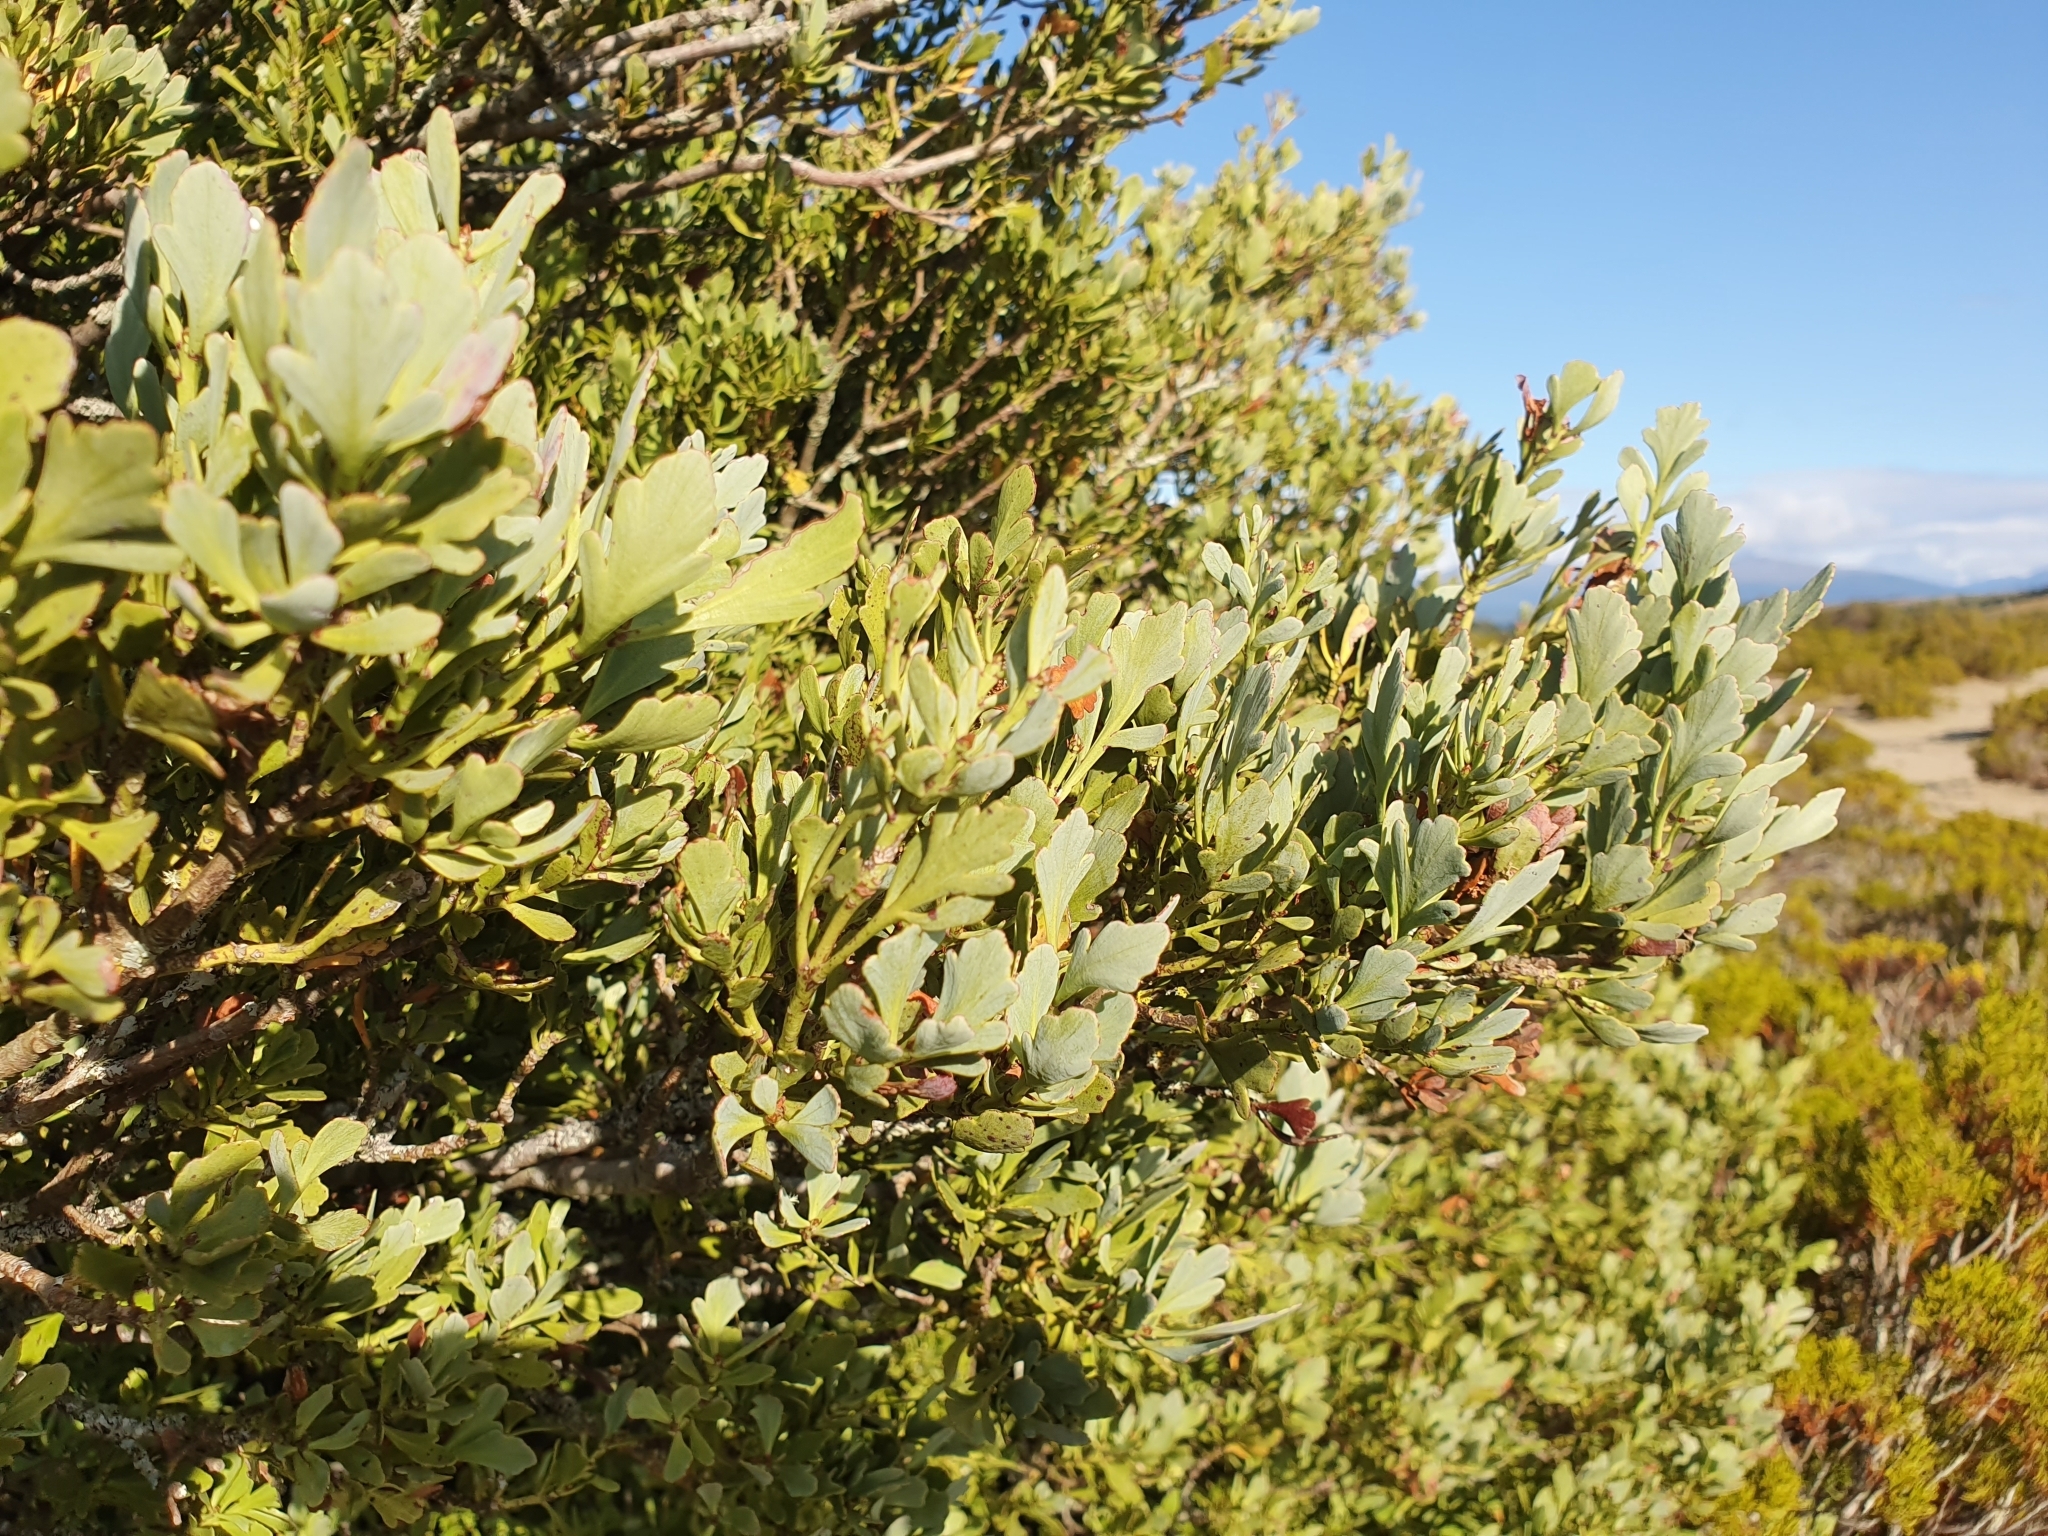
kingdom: Plantae
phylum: Tracheophyta
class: Pinopsida
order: Pinales
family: Phyllocladaceae
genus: Phyllocladus
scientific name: Phyllocladus trichomanoides
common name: Celery pine
